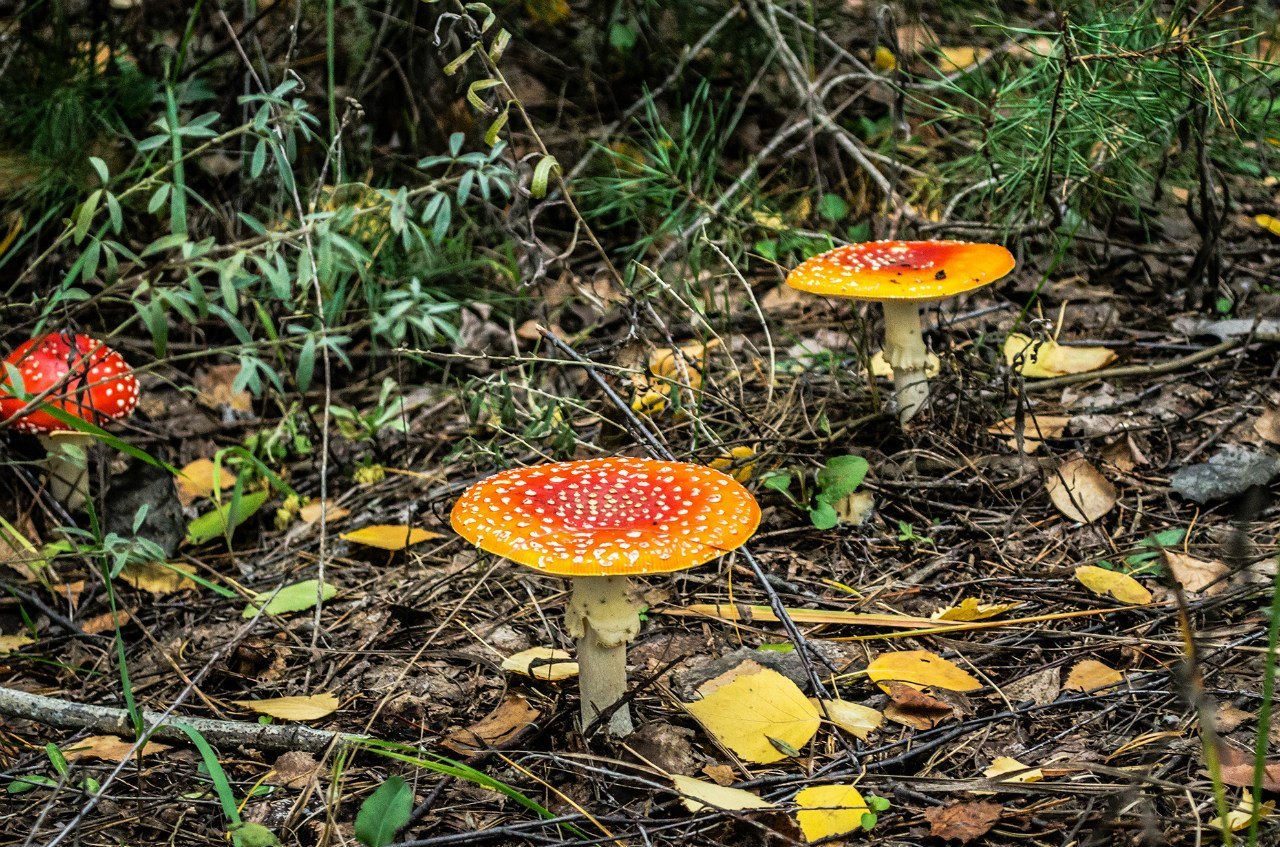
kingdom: Fungi
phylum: Basidiomycota
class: Agaricomycetes
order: Agaricales
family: Amanitaceae
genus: Amanita
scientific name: Amanita muscaria
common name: Fly agaric
